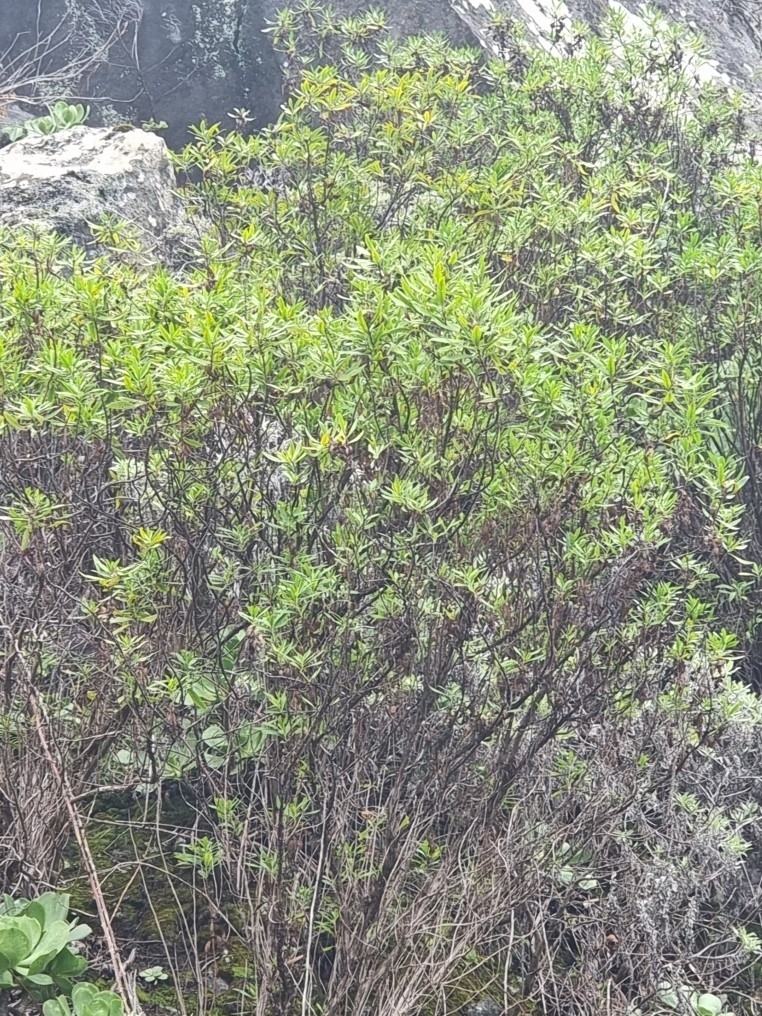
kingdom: Plantae
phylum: Tracheophyta
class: Magnoliopsida
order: Lamiales
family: Plantaginaceae
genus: Globularia
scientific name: Globularia salicina
